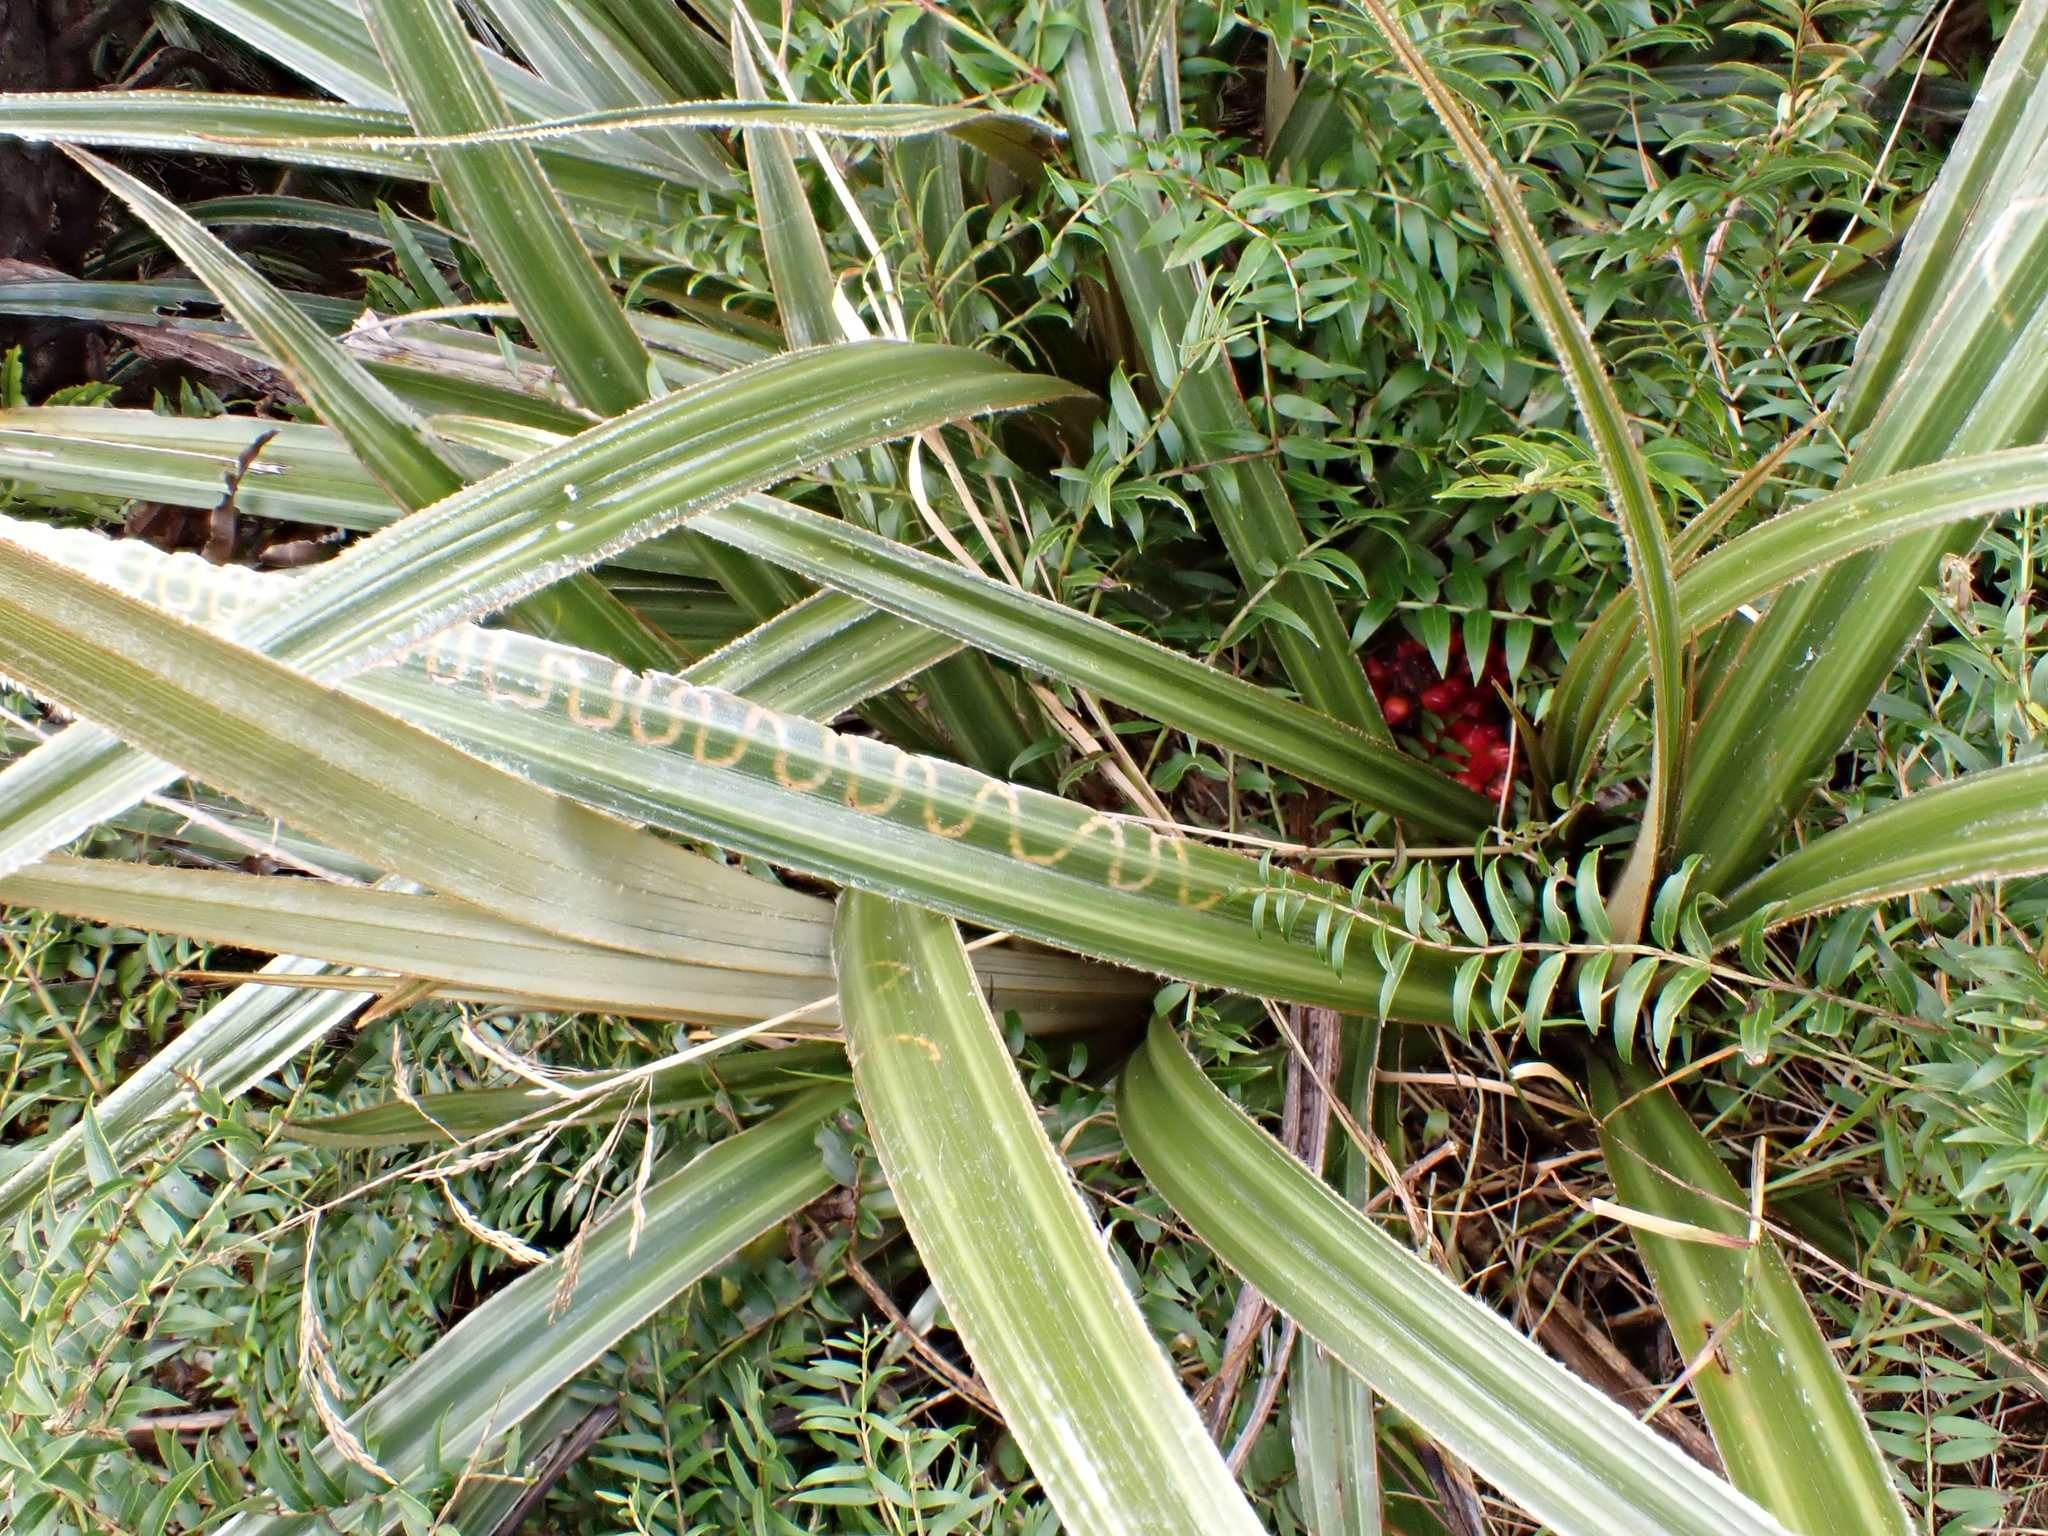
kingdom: Plantae
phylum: Tracheophyta
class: Liliopsida
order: Asparagales
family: Asteliaceae
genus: Astelia
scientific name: Astelia nervosa
